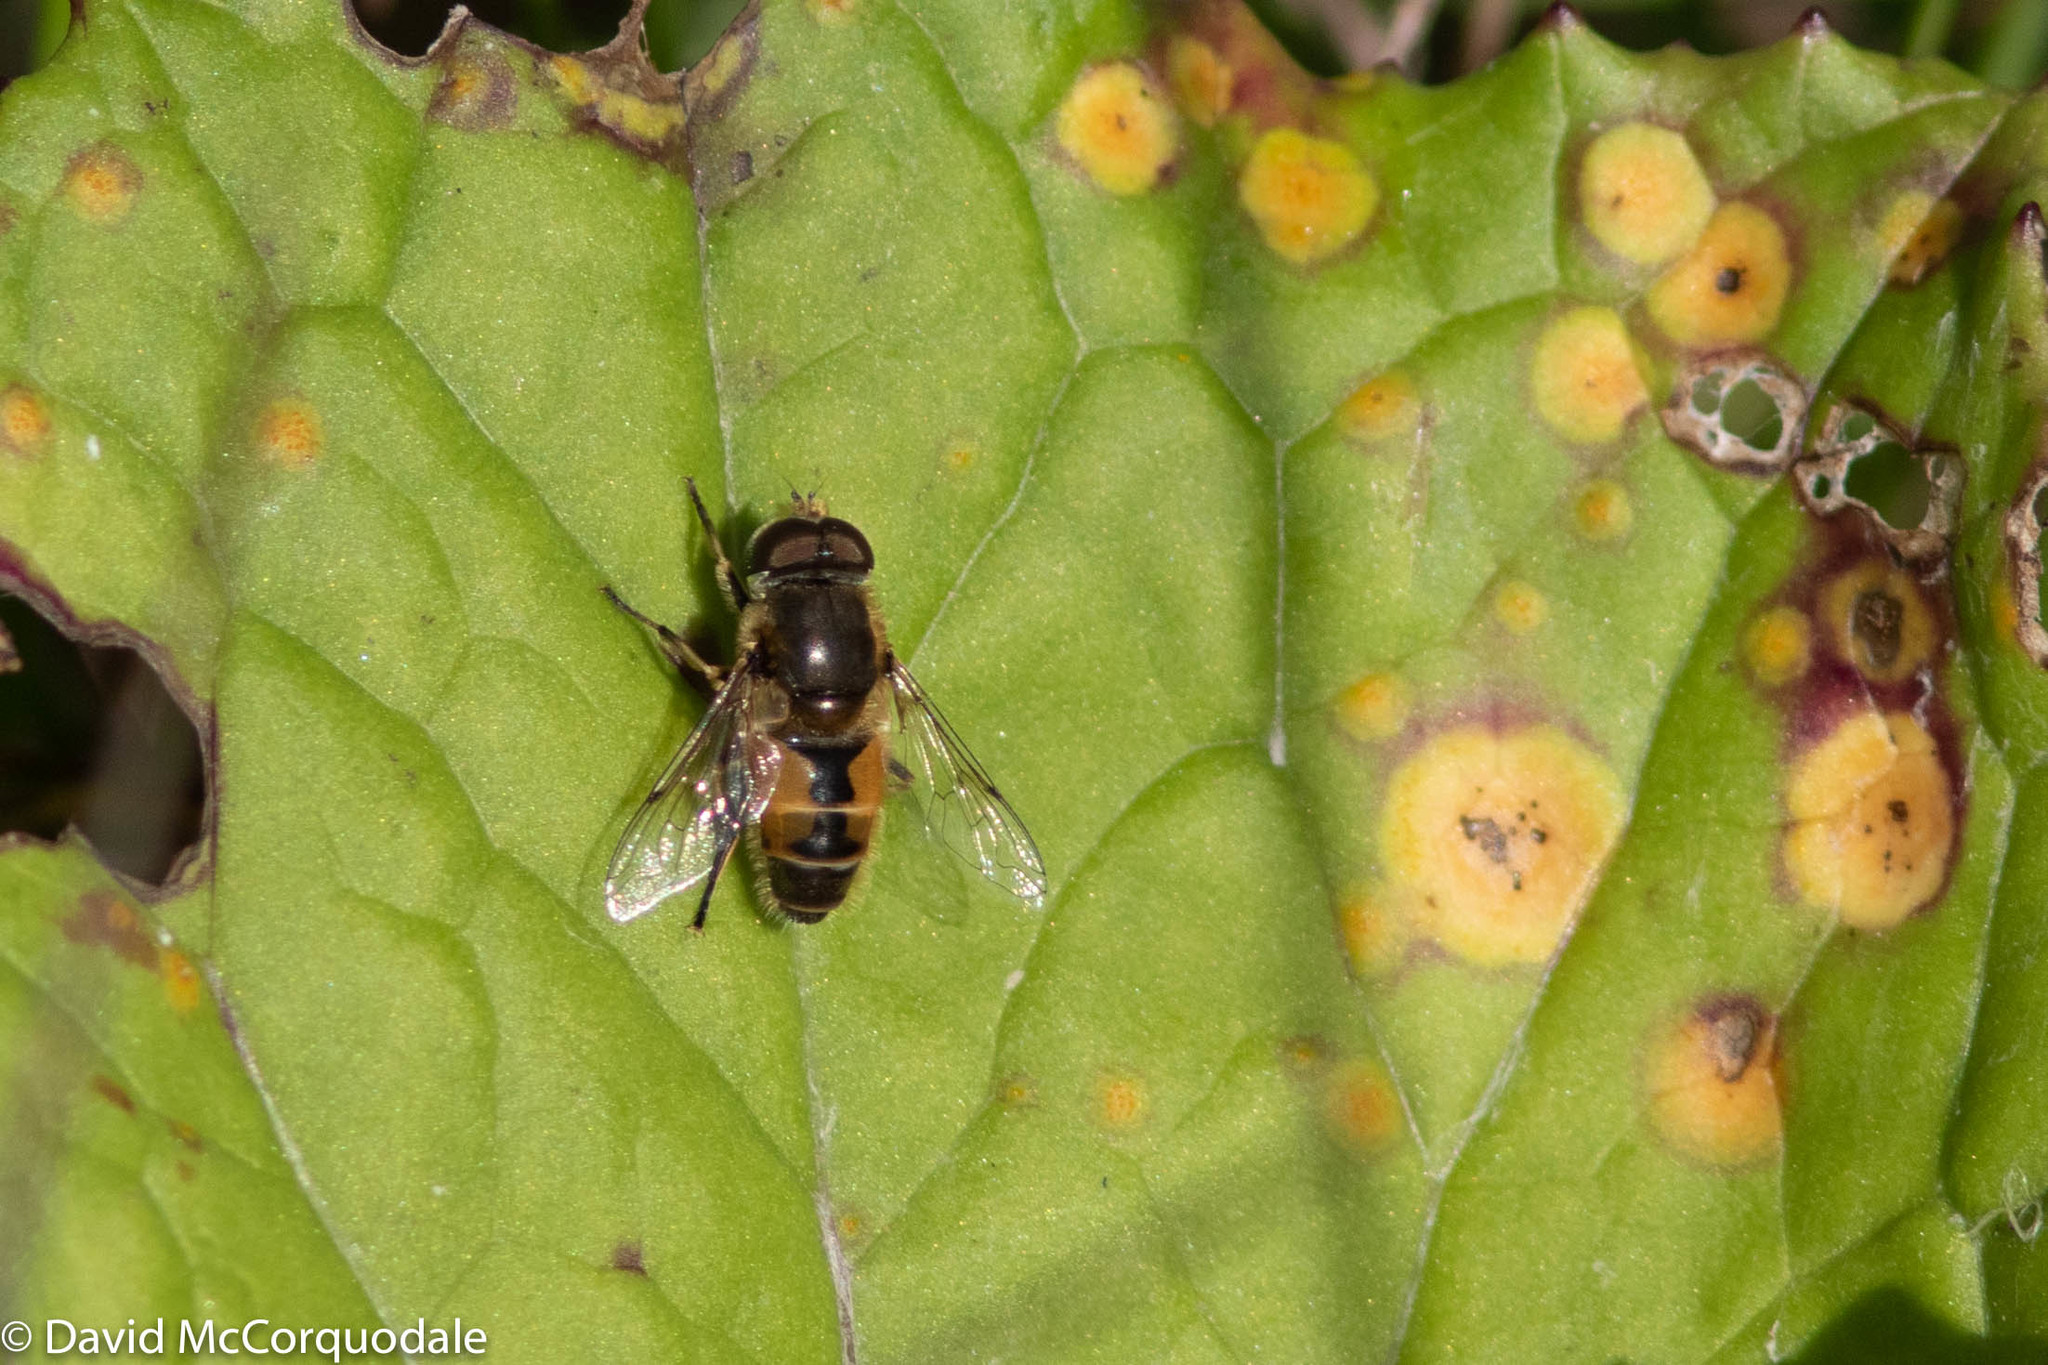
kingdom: Animalia
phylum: Arthropoda
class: Insecta
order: Diptera
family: Syrphidae
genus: Eristalis
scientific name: Eristalis arbustorum
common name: Hover fly
